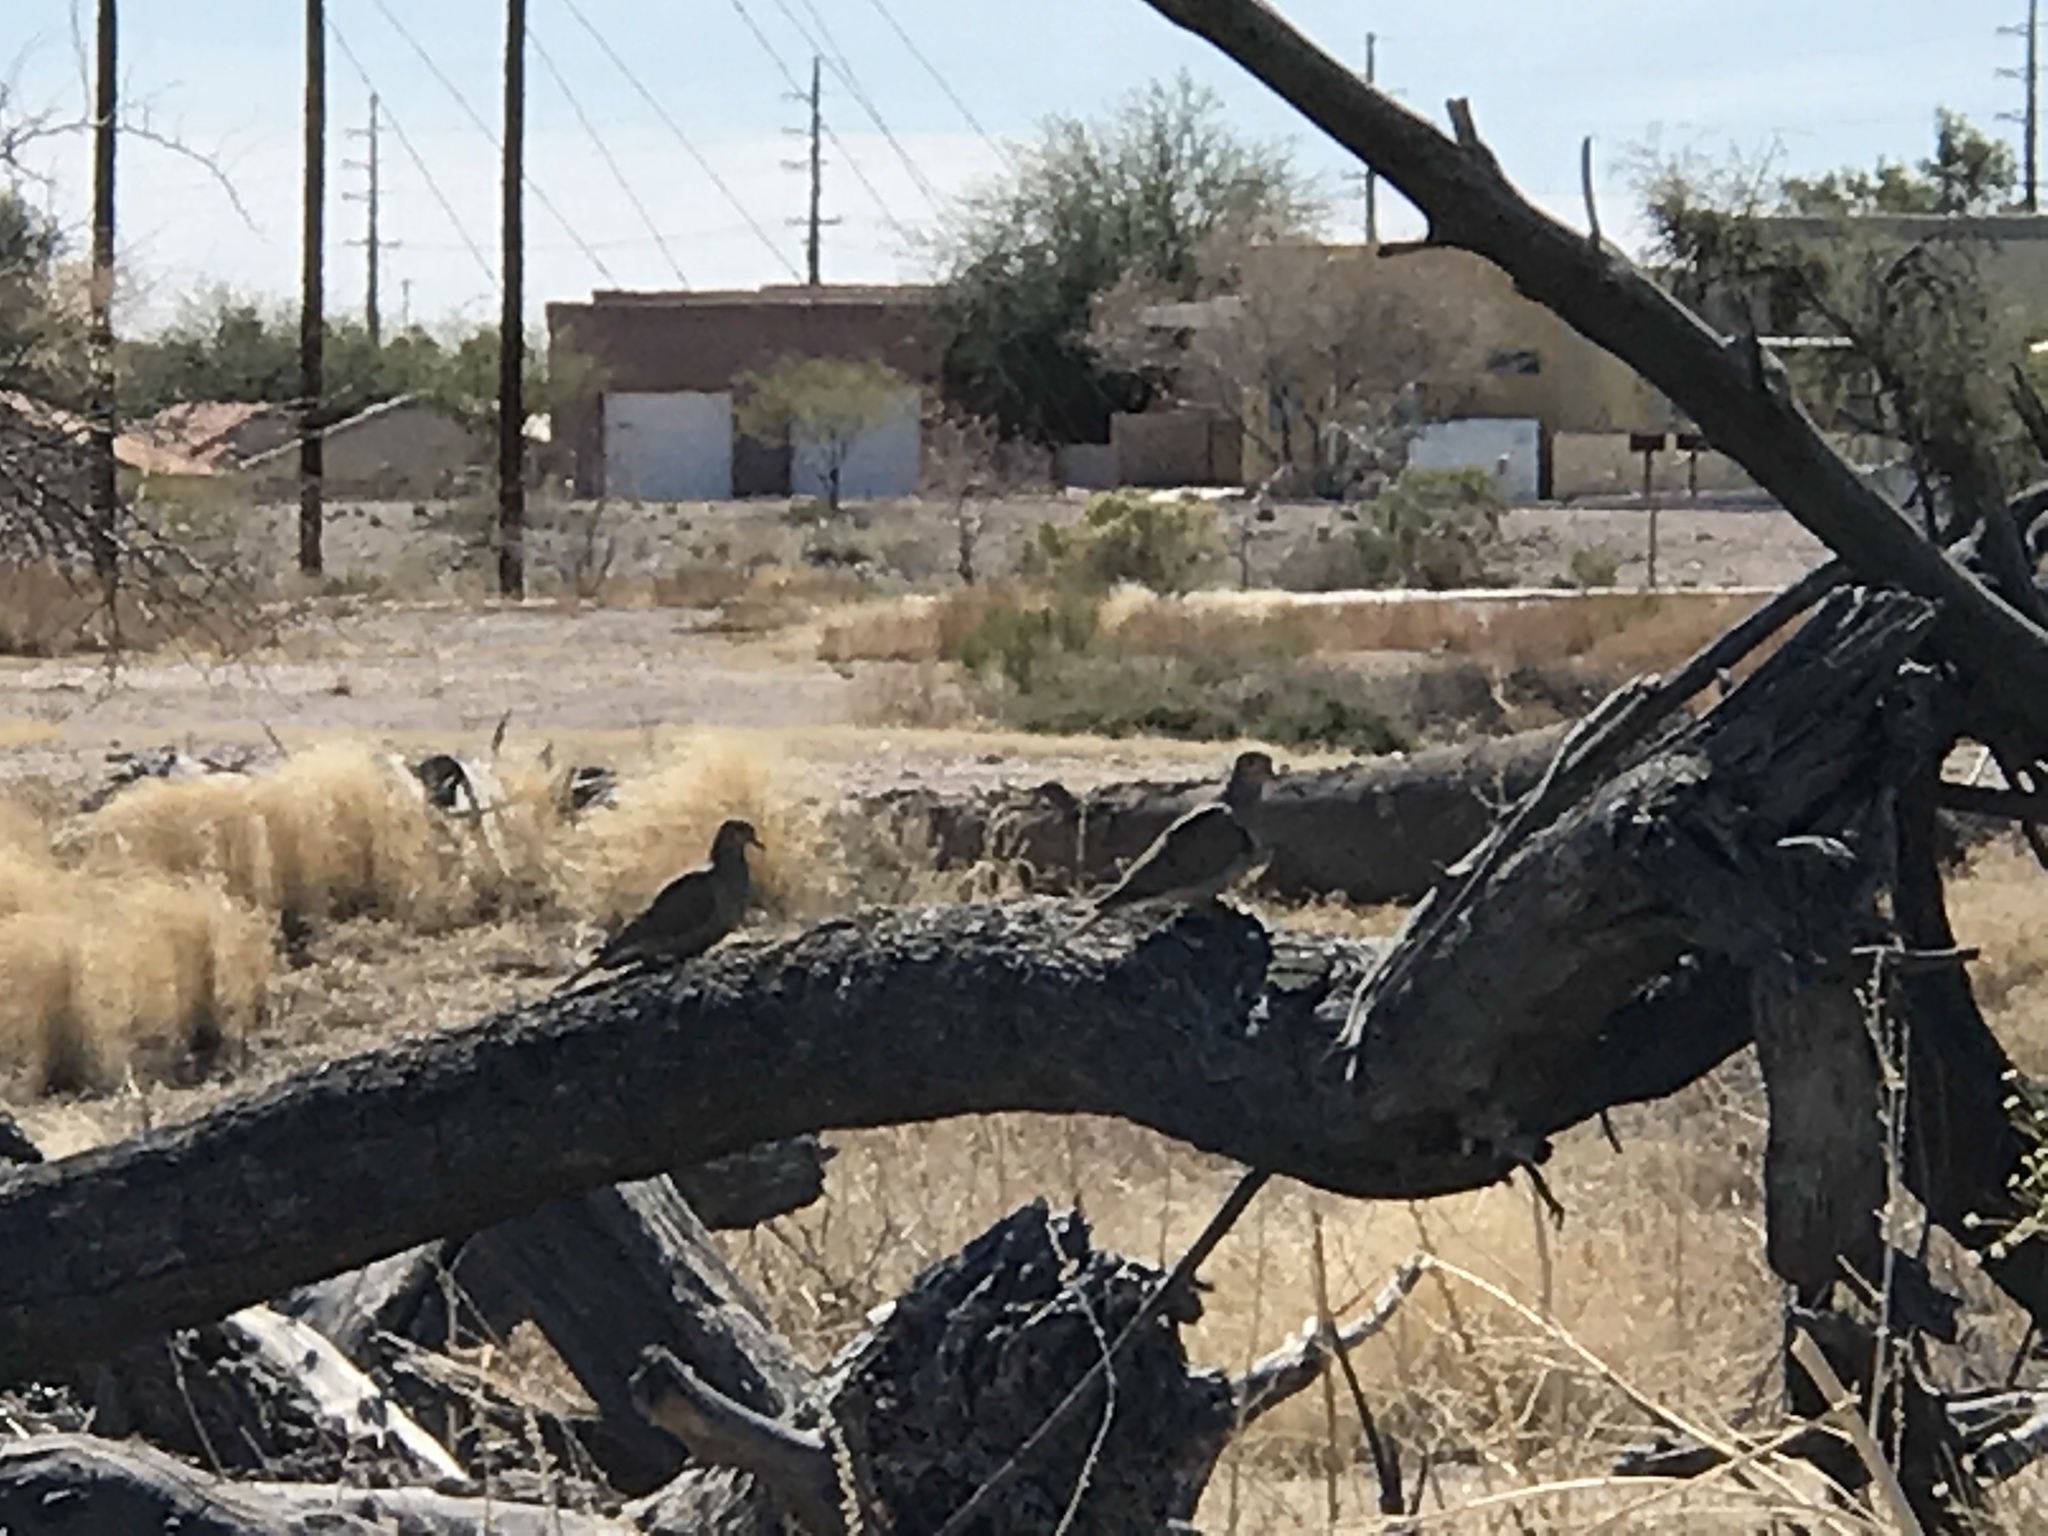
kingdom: Animalia
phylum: Chordata
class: Aves
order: Columbiformes
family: Columbidae
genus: Zenaida
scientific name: Zenaida macroura
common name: Mourning dove
